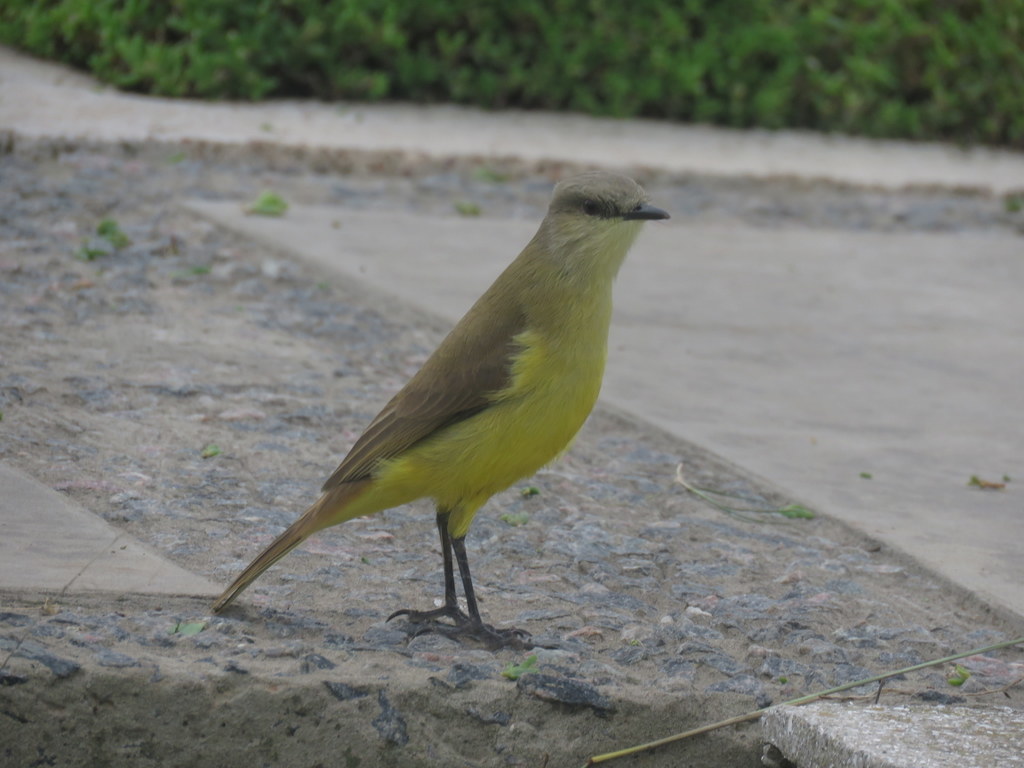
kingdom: Animalia
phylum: Chordata
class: Aves
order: Passeriformes
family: Tyrannidae
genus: Machetornis
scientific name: Machetornis rixosa
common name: Cattle tyrant
